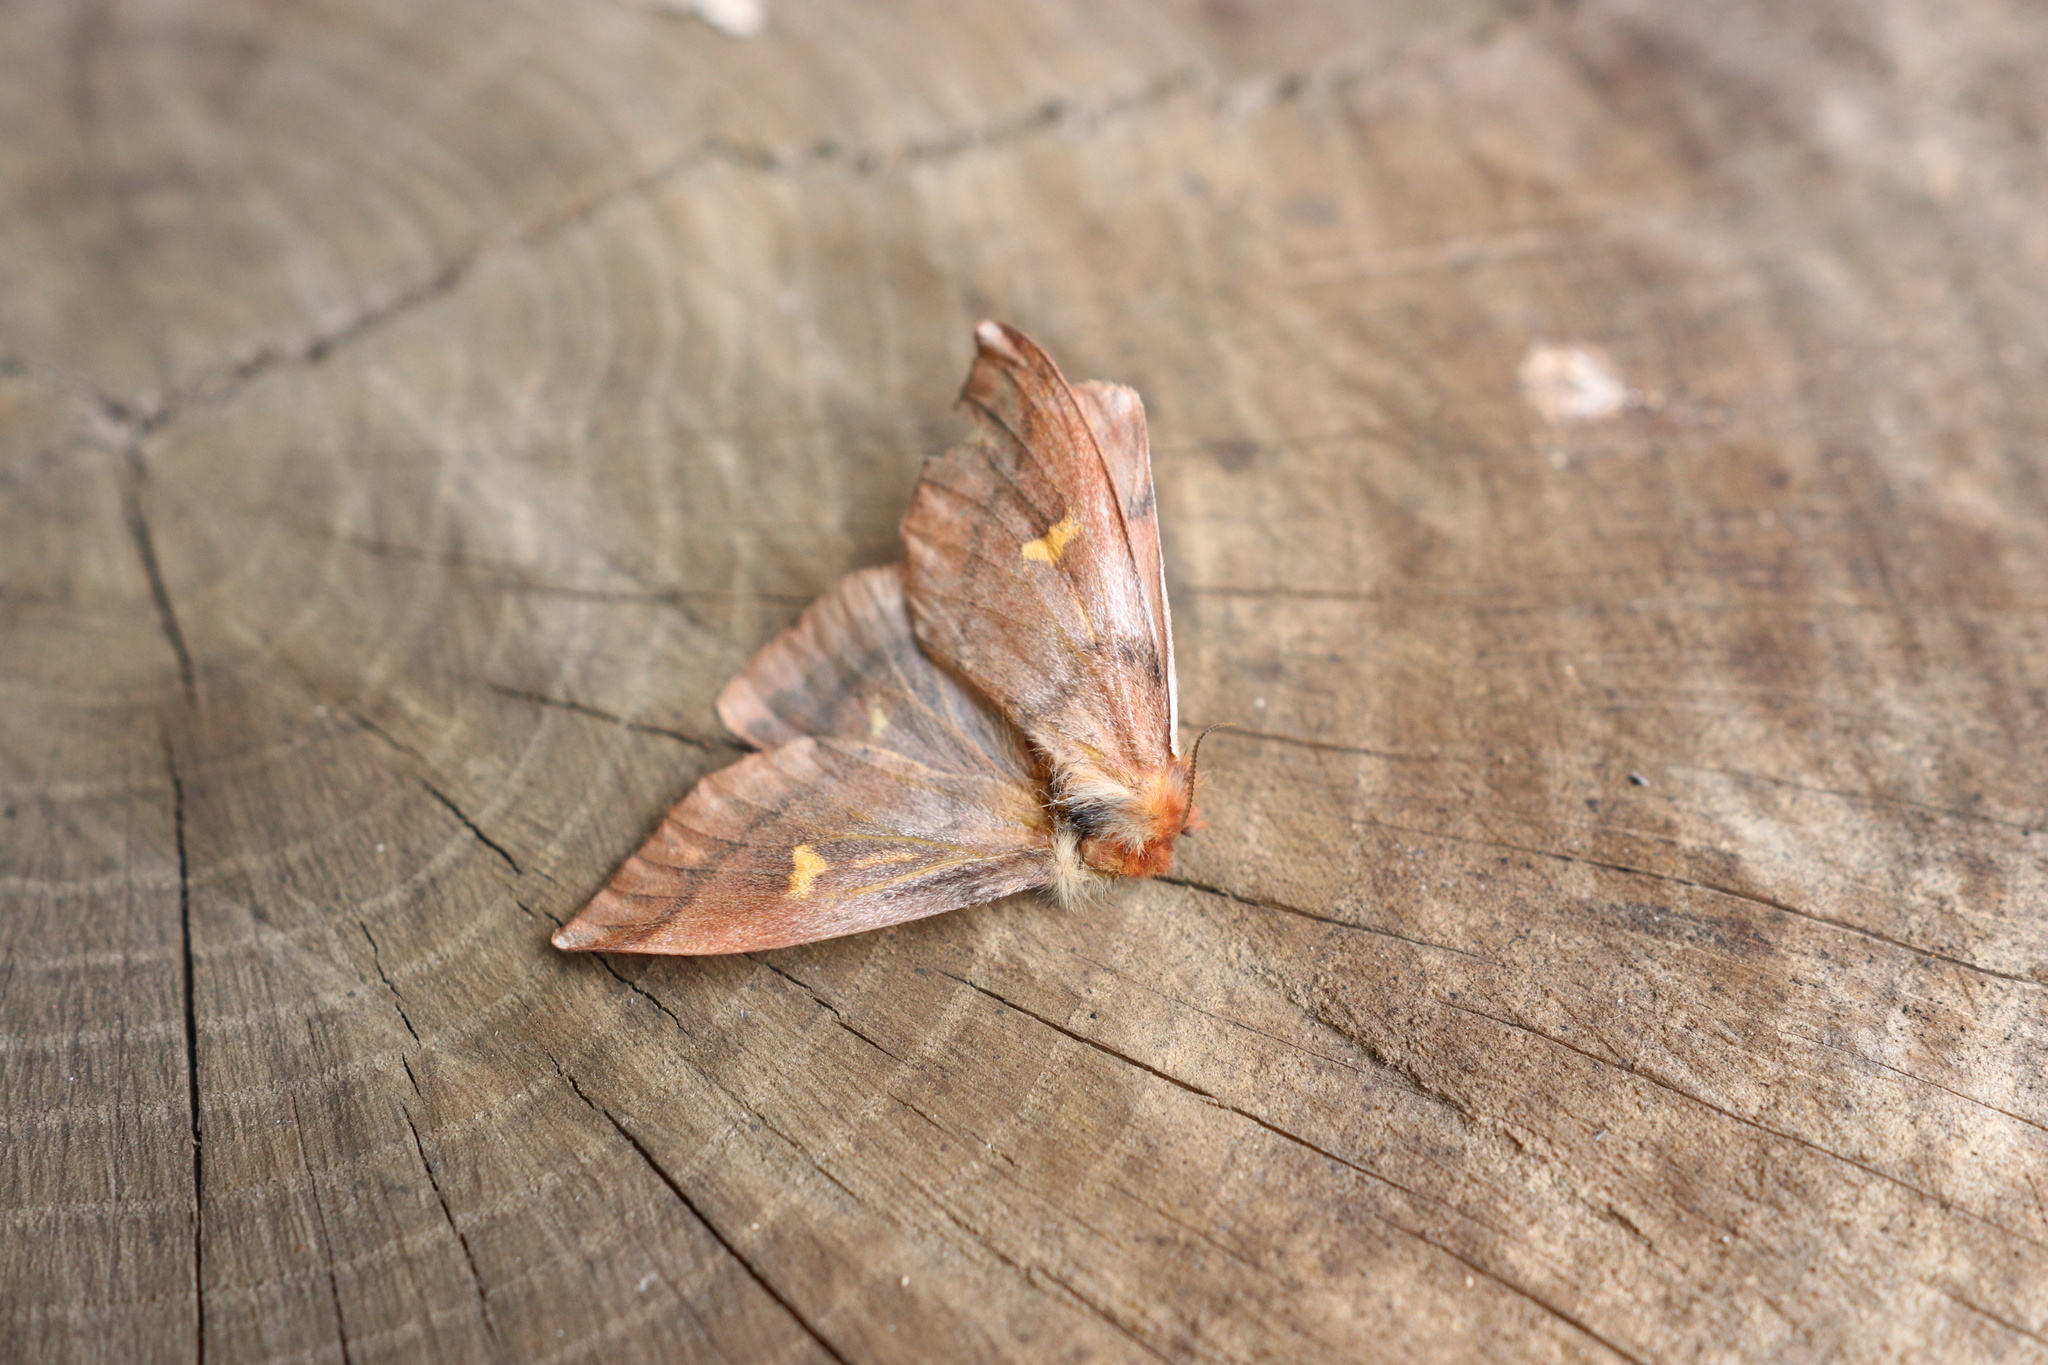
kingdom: Animalia
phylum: Arthropoda
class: Insecta
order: Lepidoptera
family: Saturniidae
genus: Ormiscodes
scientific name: Ormiscodes amphinome
